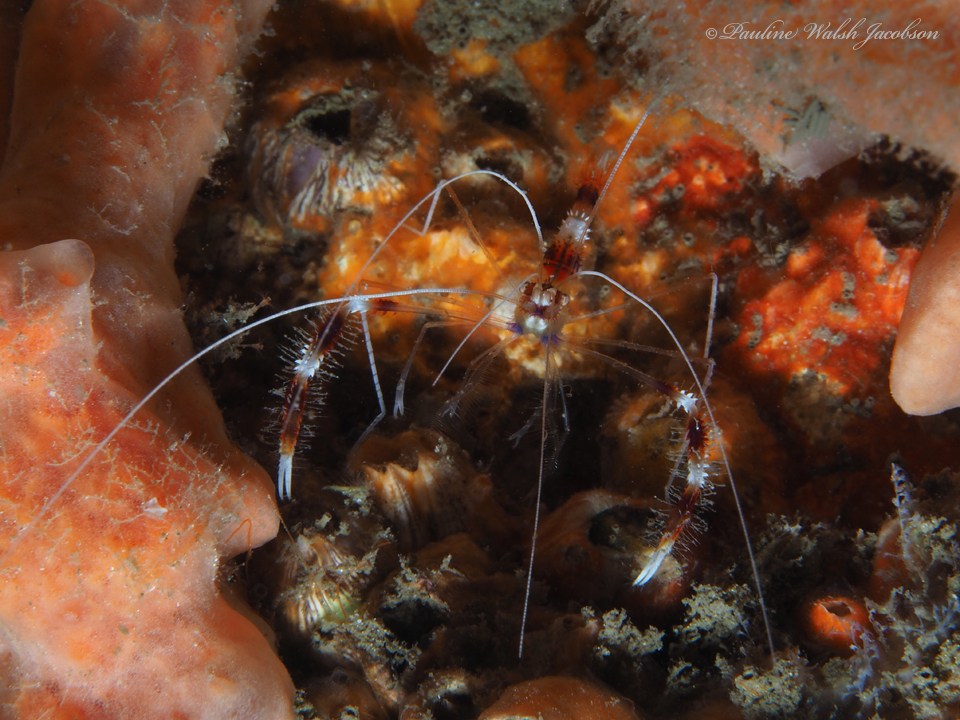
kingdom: Animalia
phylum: Arthropoda
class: Malacostraca
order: Decapoda
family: Stenopodidae
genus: Stenopus
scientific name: Stenopus hispidus
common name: Banded coral shrimp
